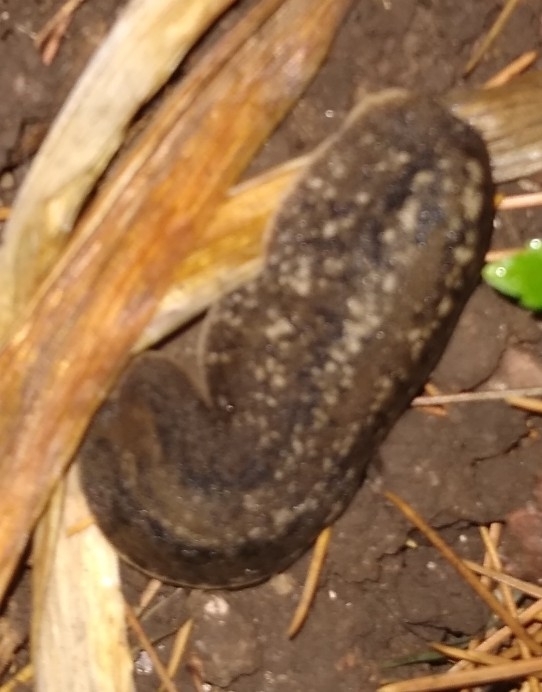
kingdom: Animalia
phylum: Mollusca
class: Gastropoda
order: Systellommatophora
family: Veronicellidae
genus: Phyllocaulis
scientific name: Phyllocaulis soleiformis
